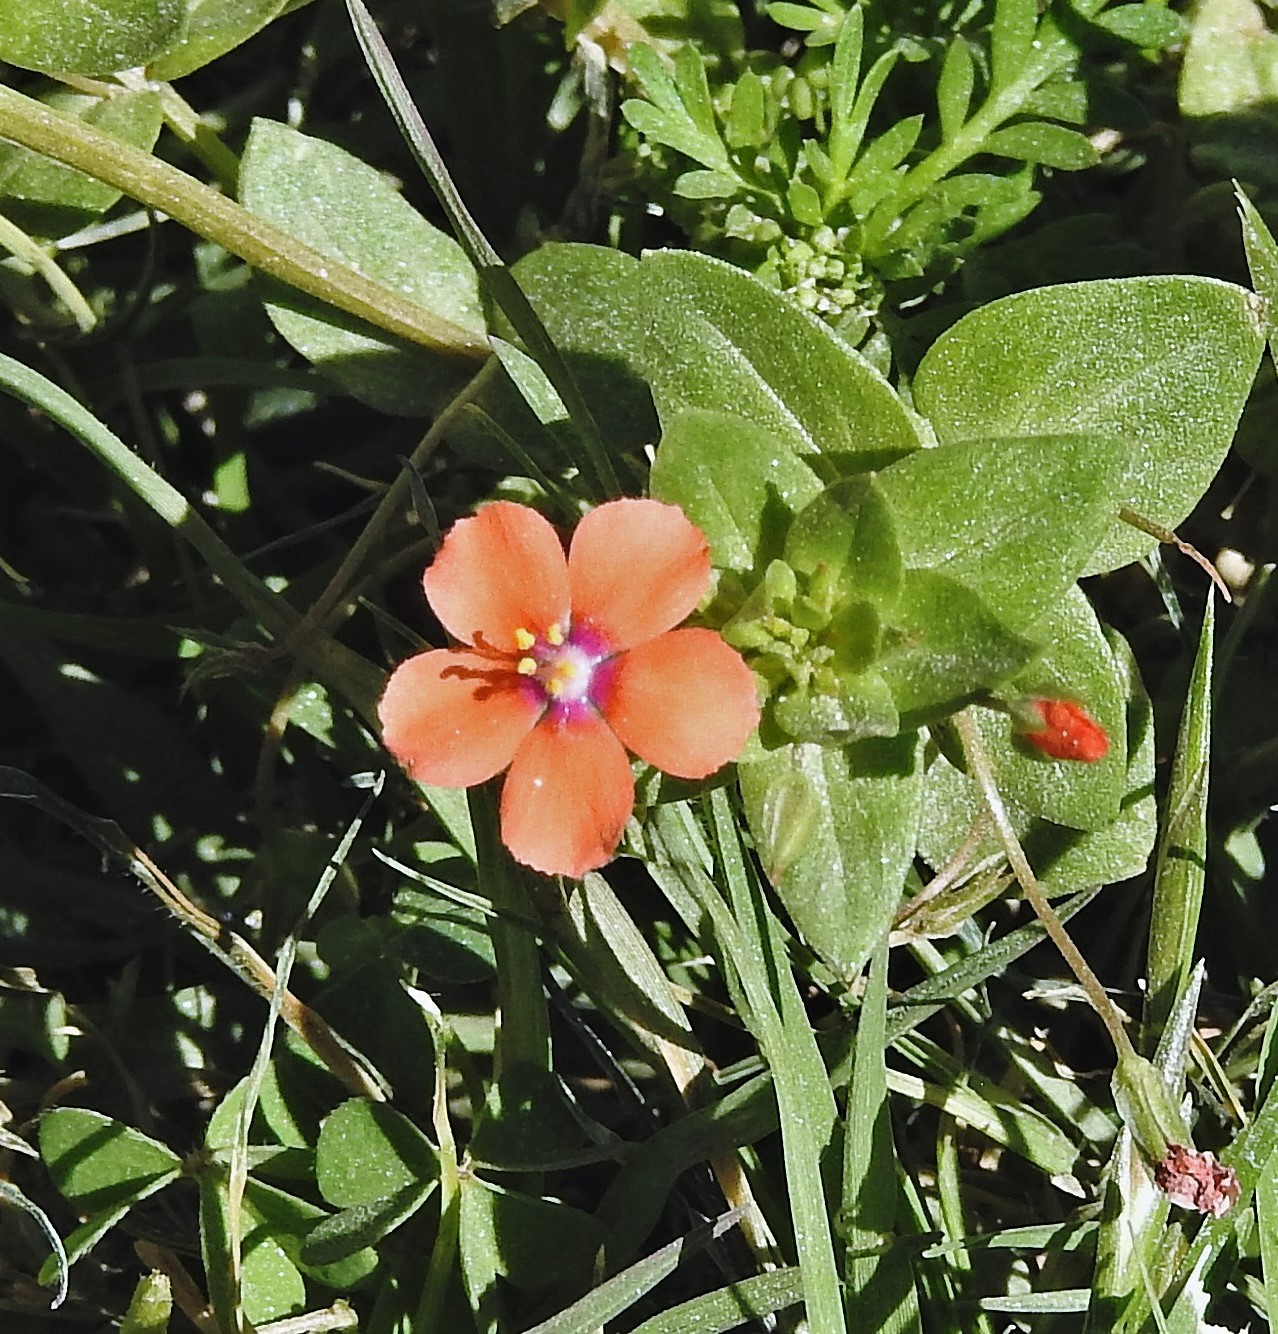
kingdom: Plantae
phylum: Tracheophyta
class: Magnoliopsida
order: Ericales
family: Primulaceae
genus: Lysimachia
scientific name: Lysimachia arvensis
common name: Scarlet pimpernel
